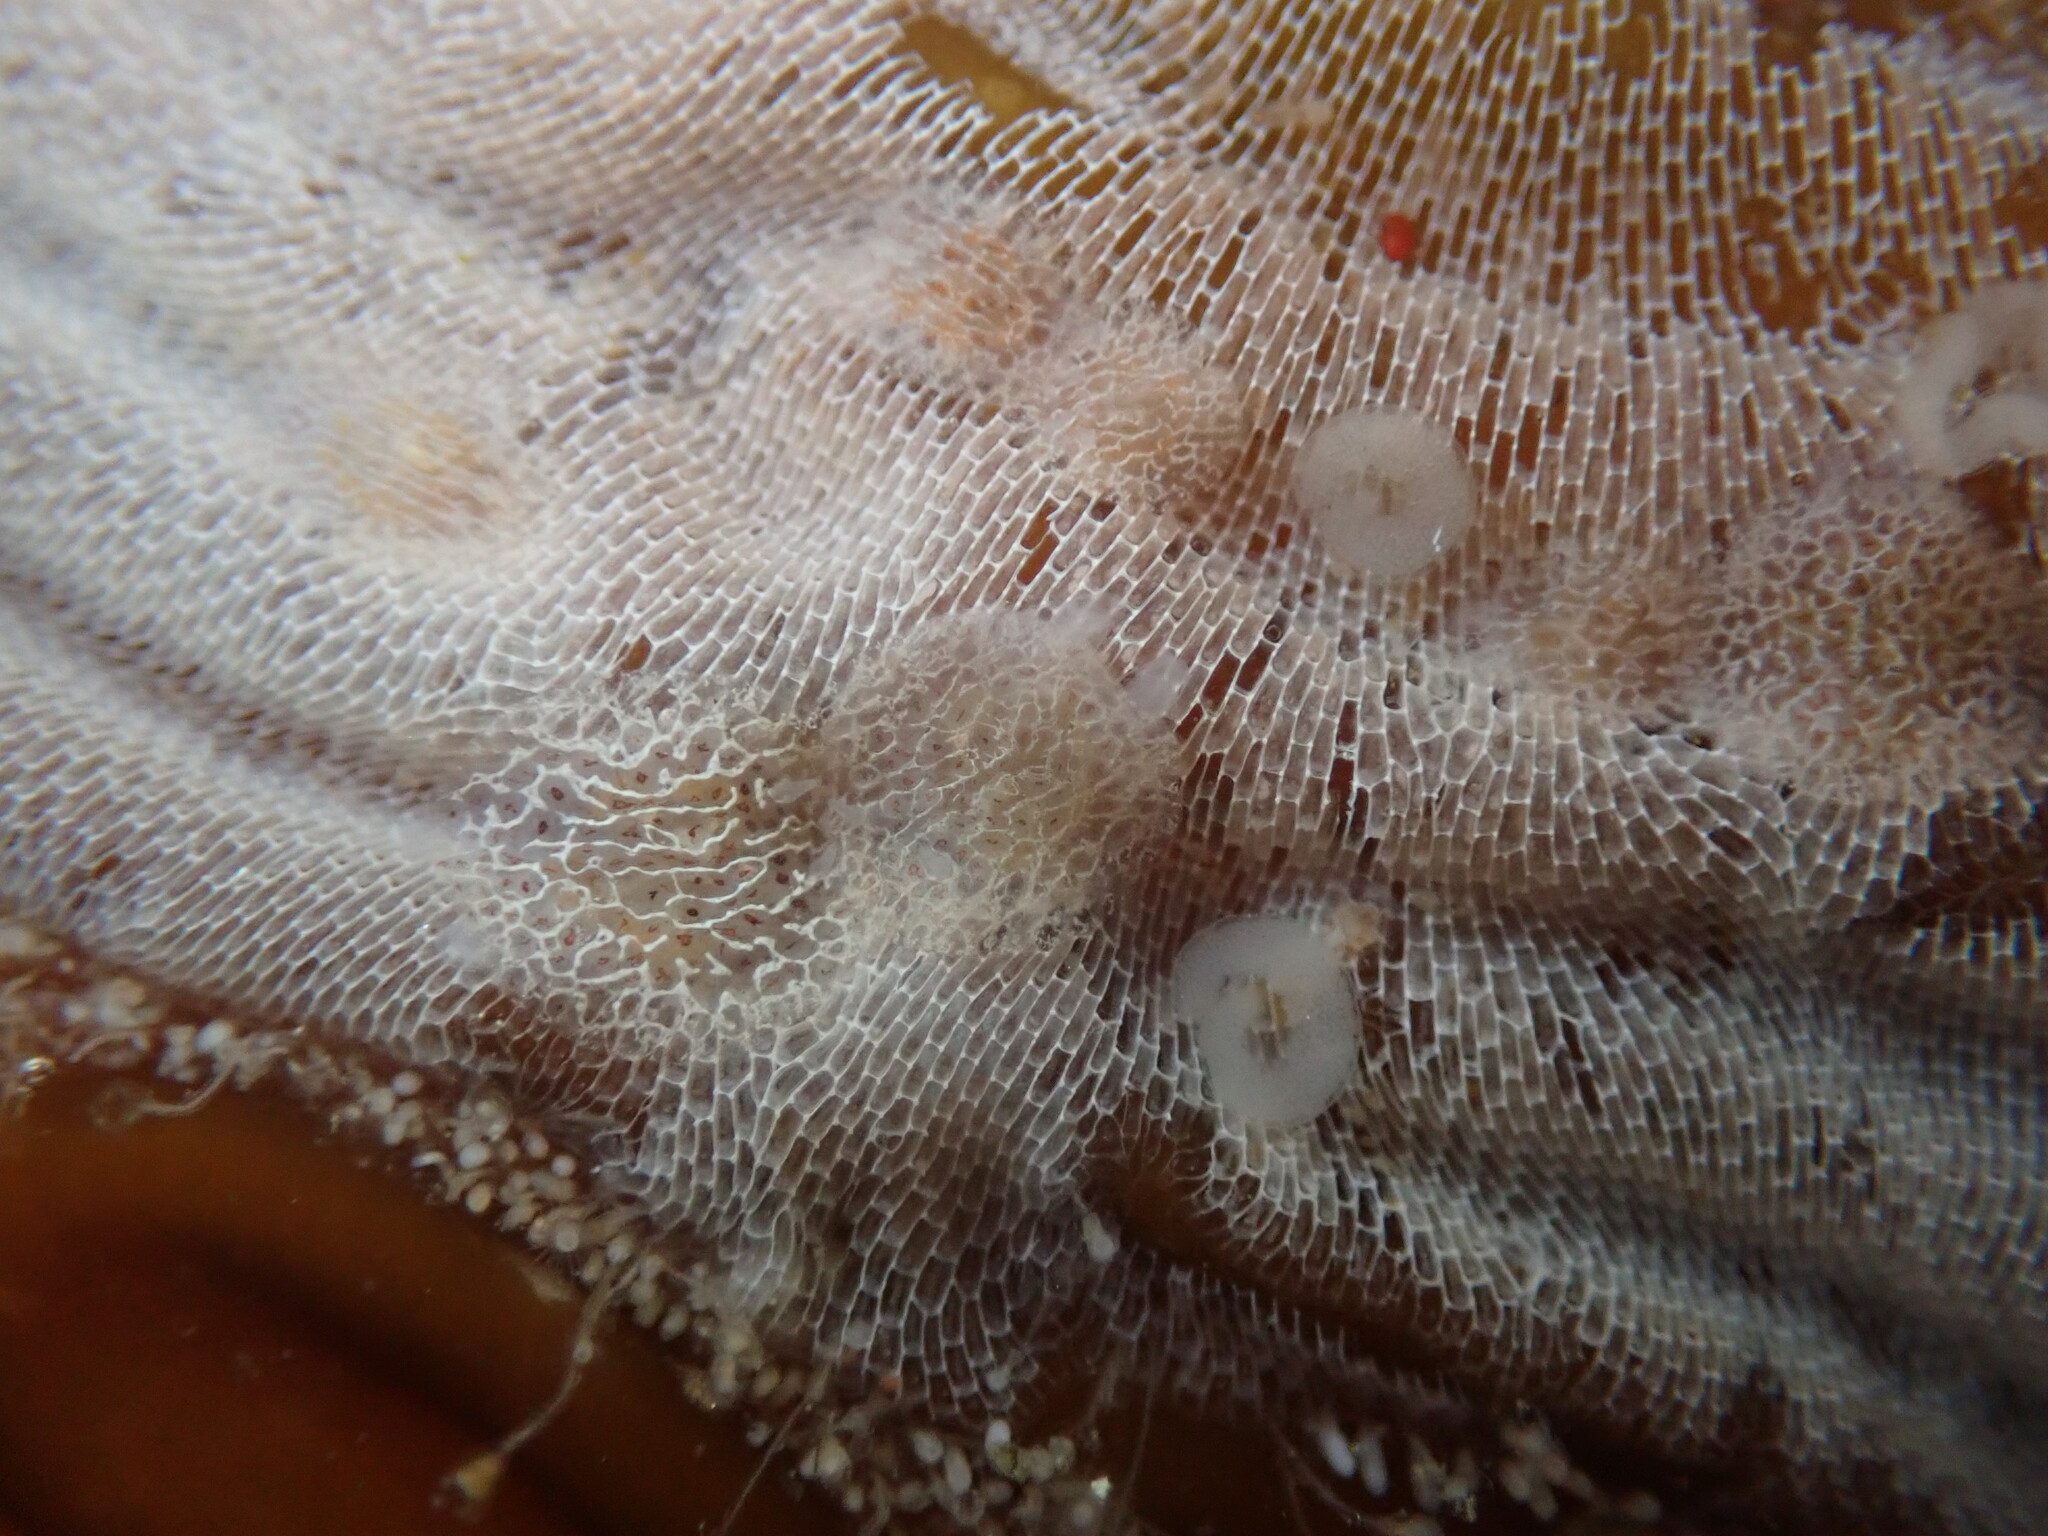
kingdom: Animalia
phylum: Mollusca
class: Gastropoda
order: Nudibranchia
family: Corambidae
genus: Corambe
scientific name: Corambe steinbergae
